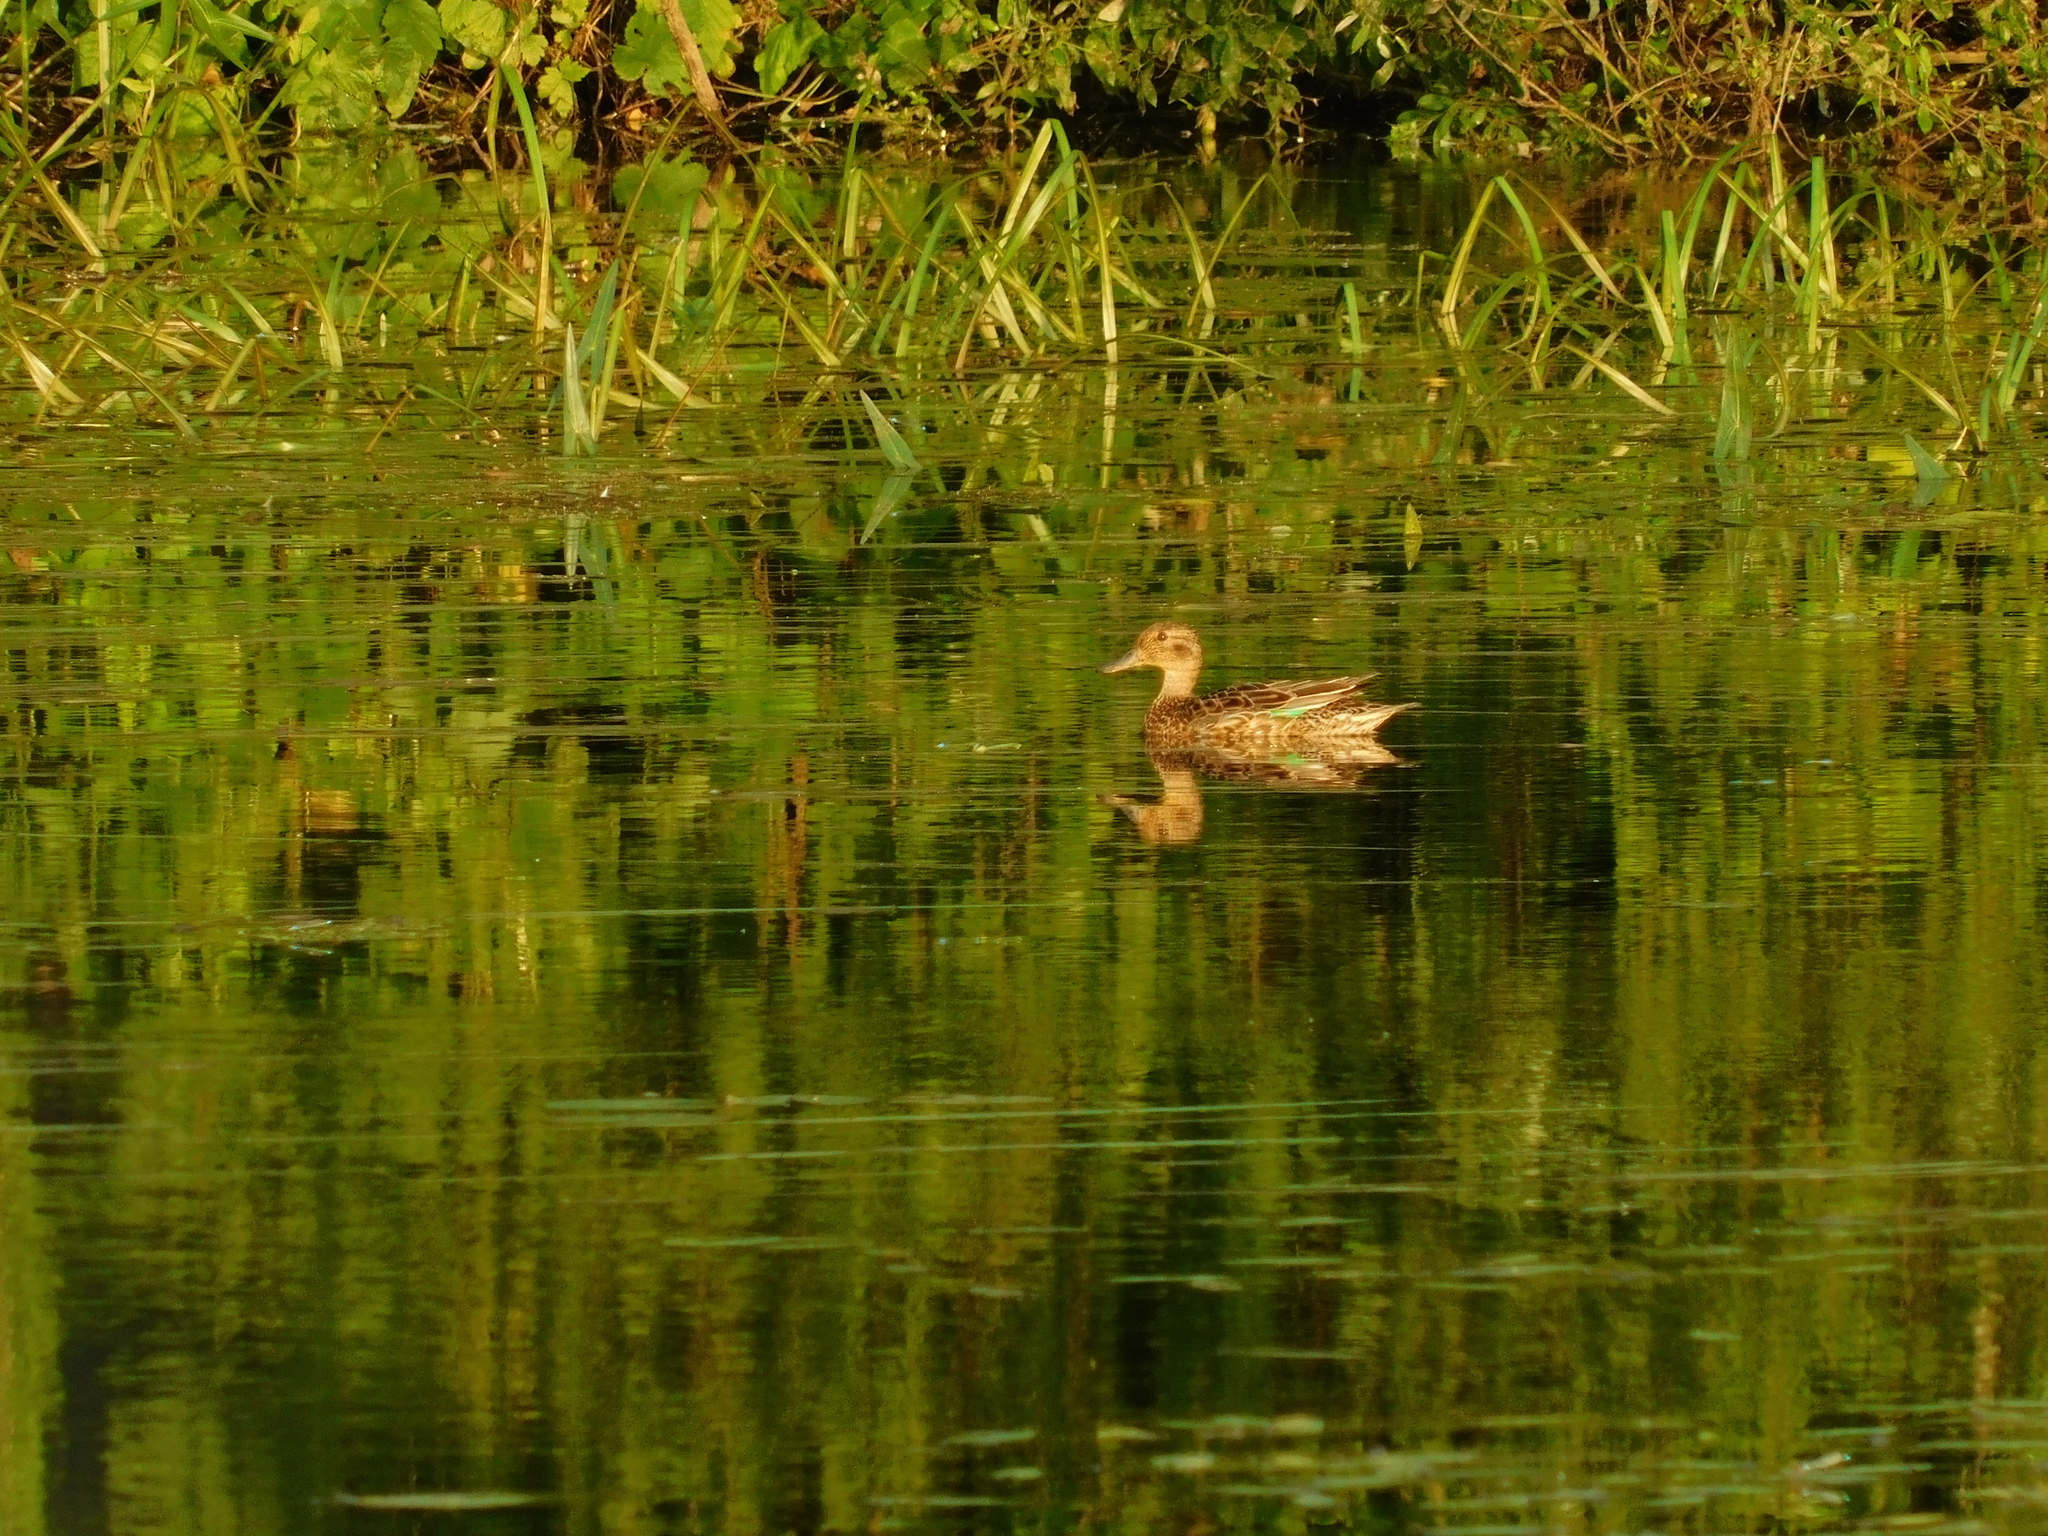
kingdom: Animalia
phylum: Chordata
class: Aves
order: Anseriformes
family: Anatidae
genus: Spatula
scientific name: Spatula querquedula
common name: Garganey
